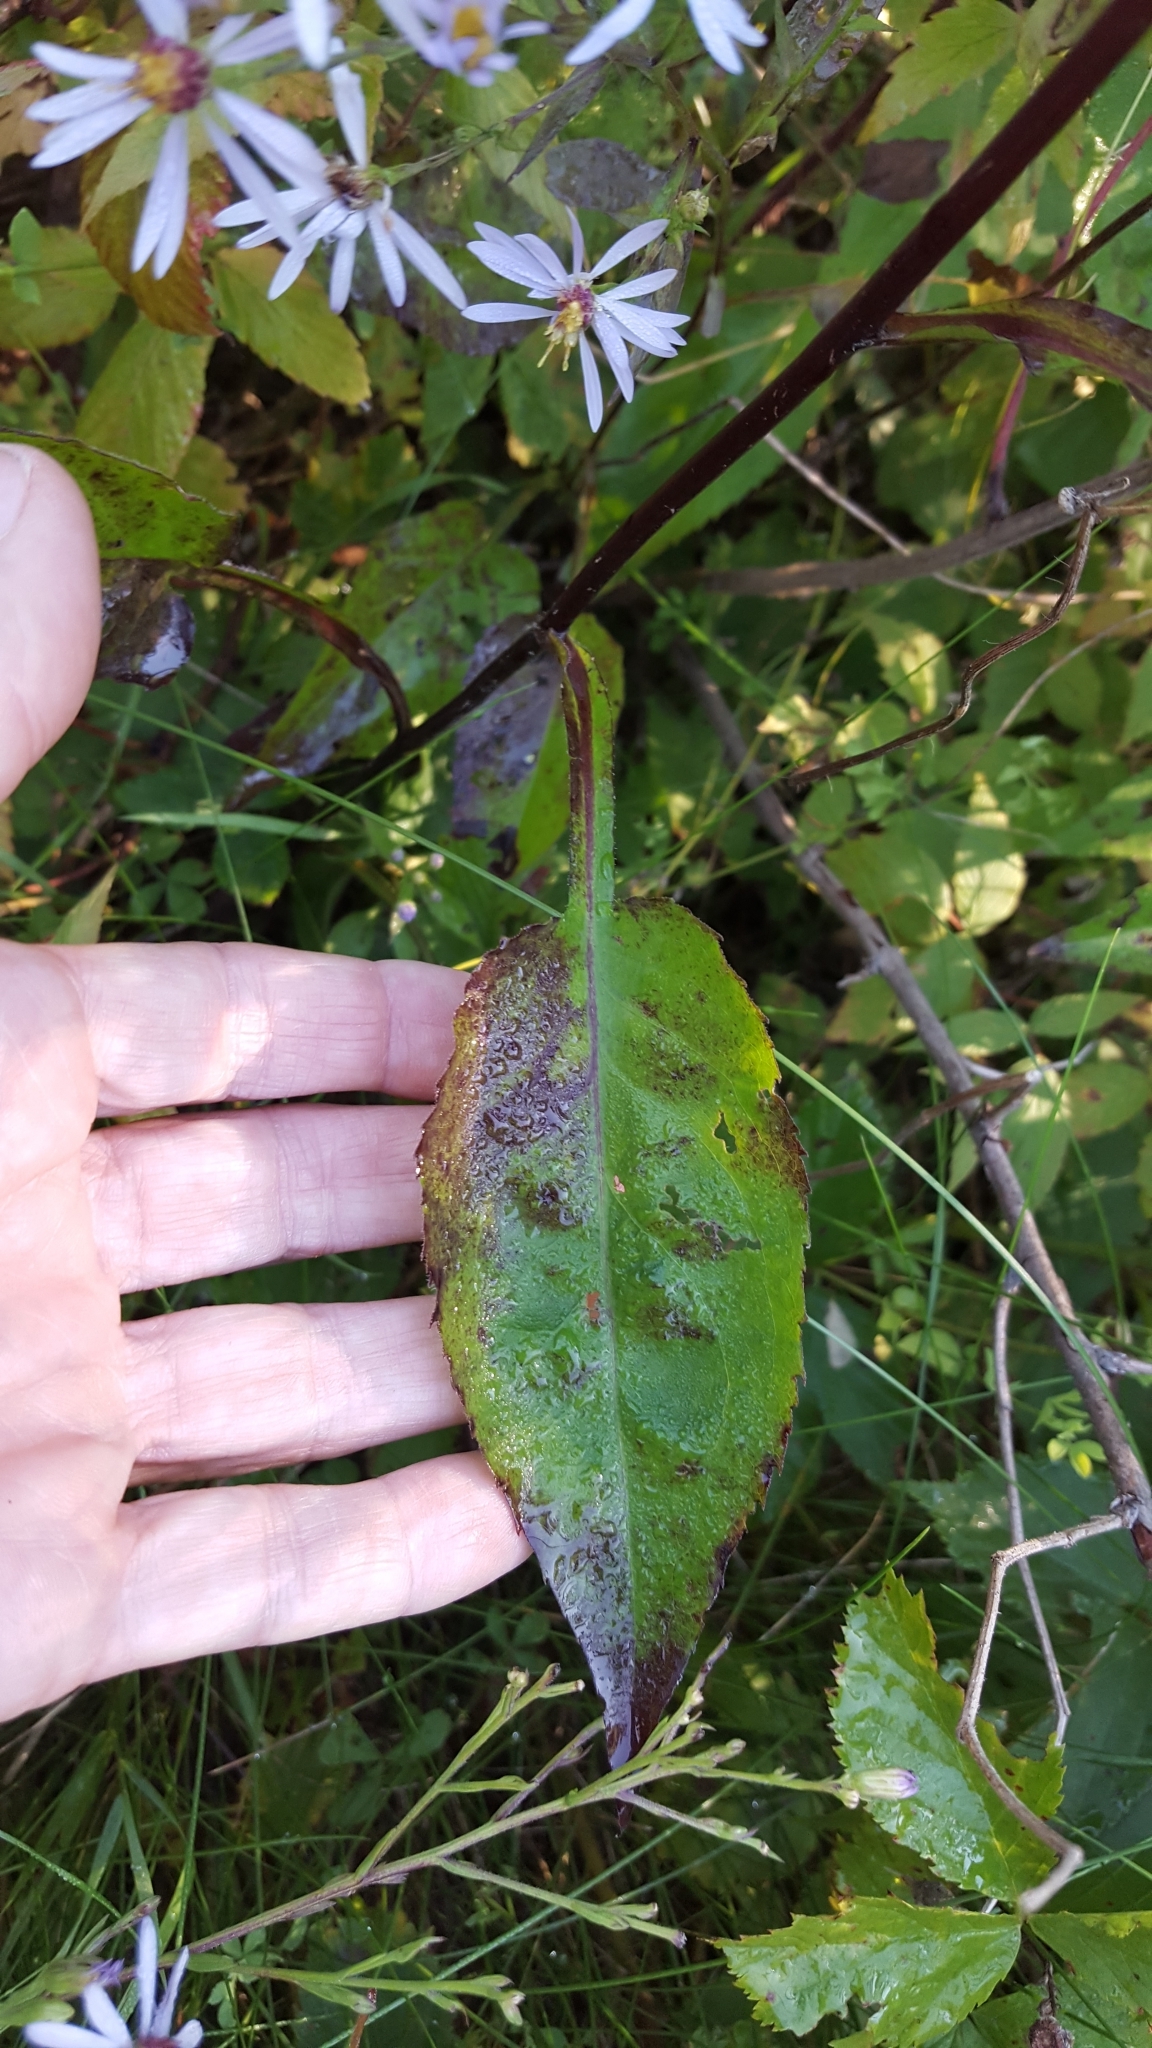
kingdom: Plantae
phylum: Tracheophyta
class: Magnoliopsida
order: Asterales
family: Asteraceae
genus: Symphyotrichum
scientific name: Symphyotrichum ciliolatum
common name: Fringed blue aster
